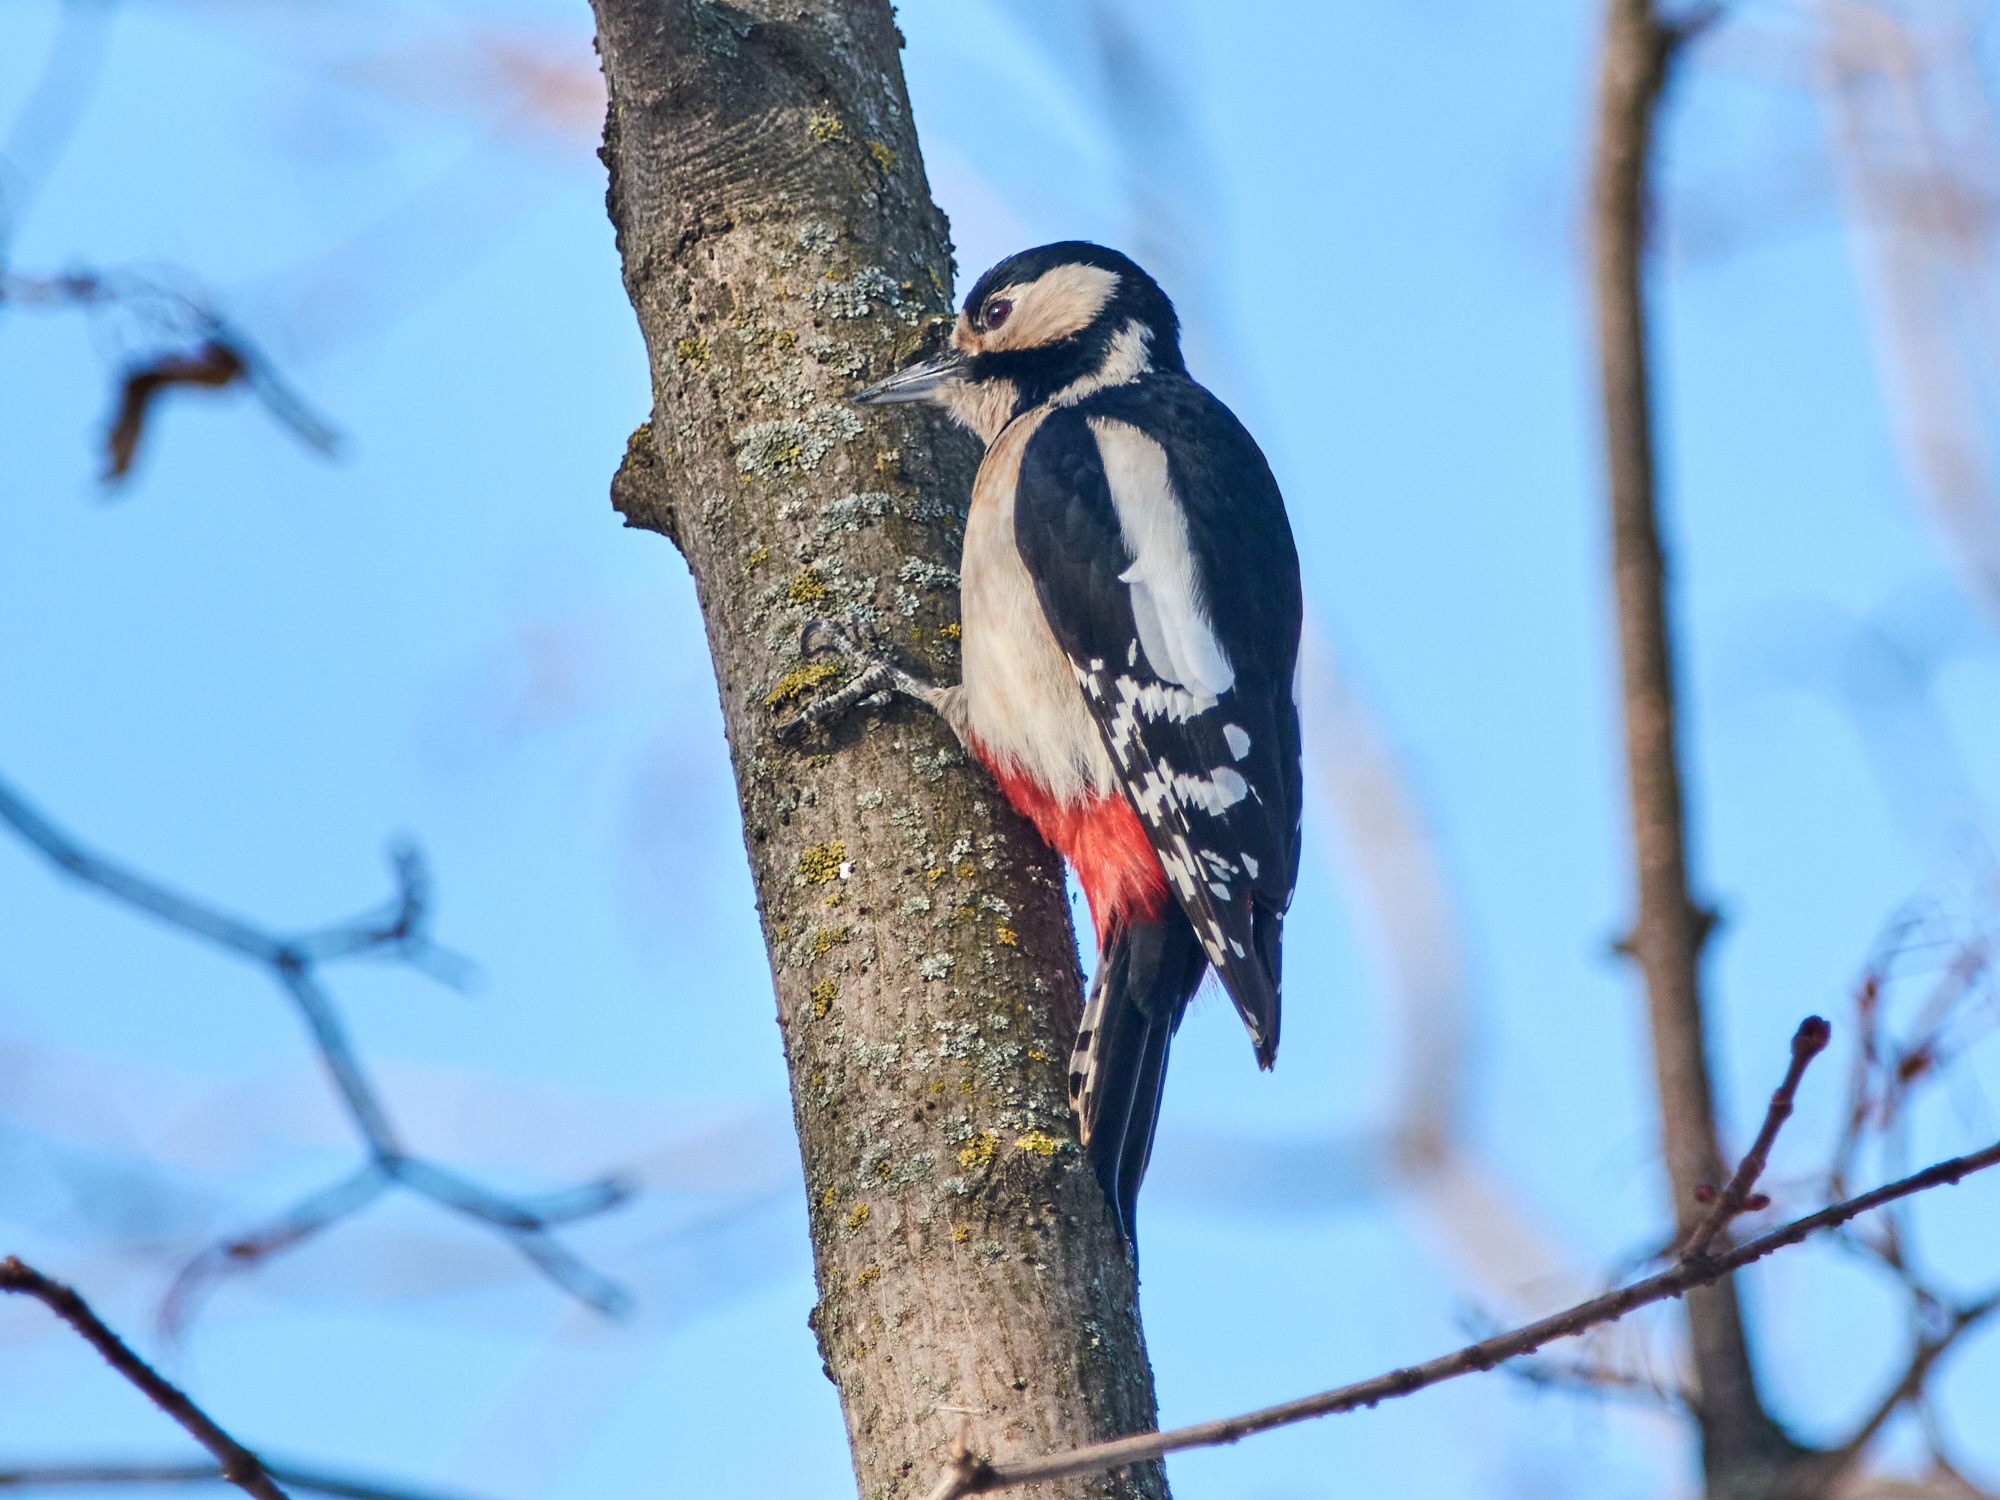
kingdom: Animalia
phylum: Chordata
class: Aves
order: Piciformes
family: Picidae
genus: Dendrocopos
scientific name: Dendrocopos major
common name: Great spotted woodpecker
